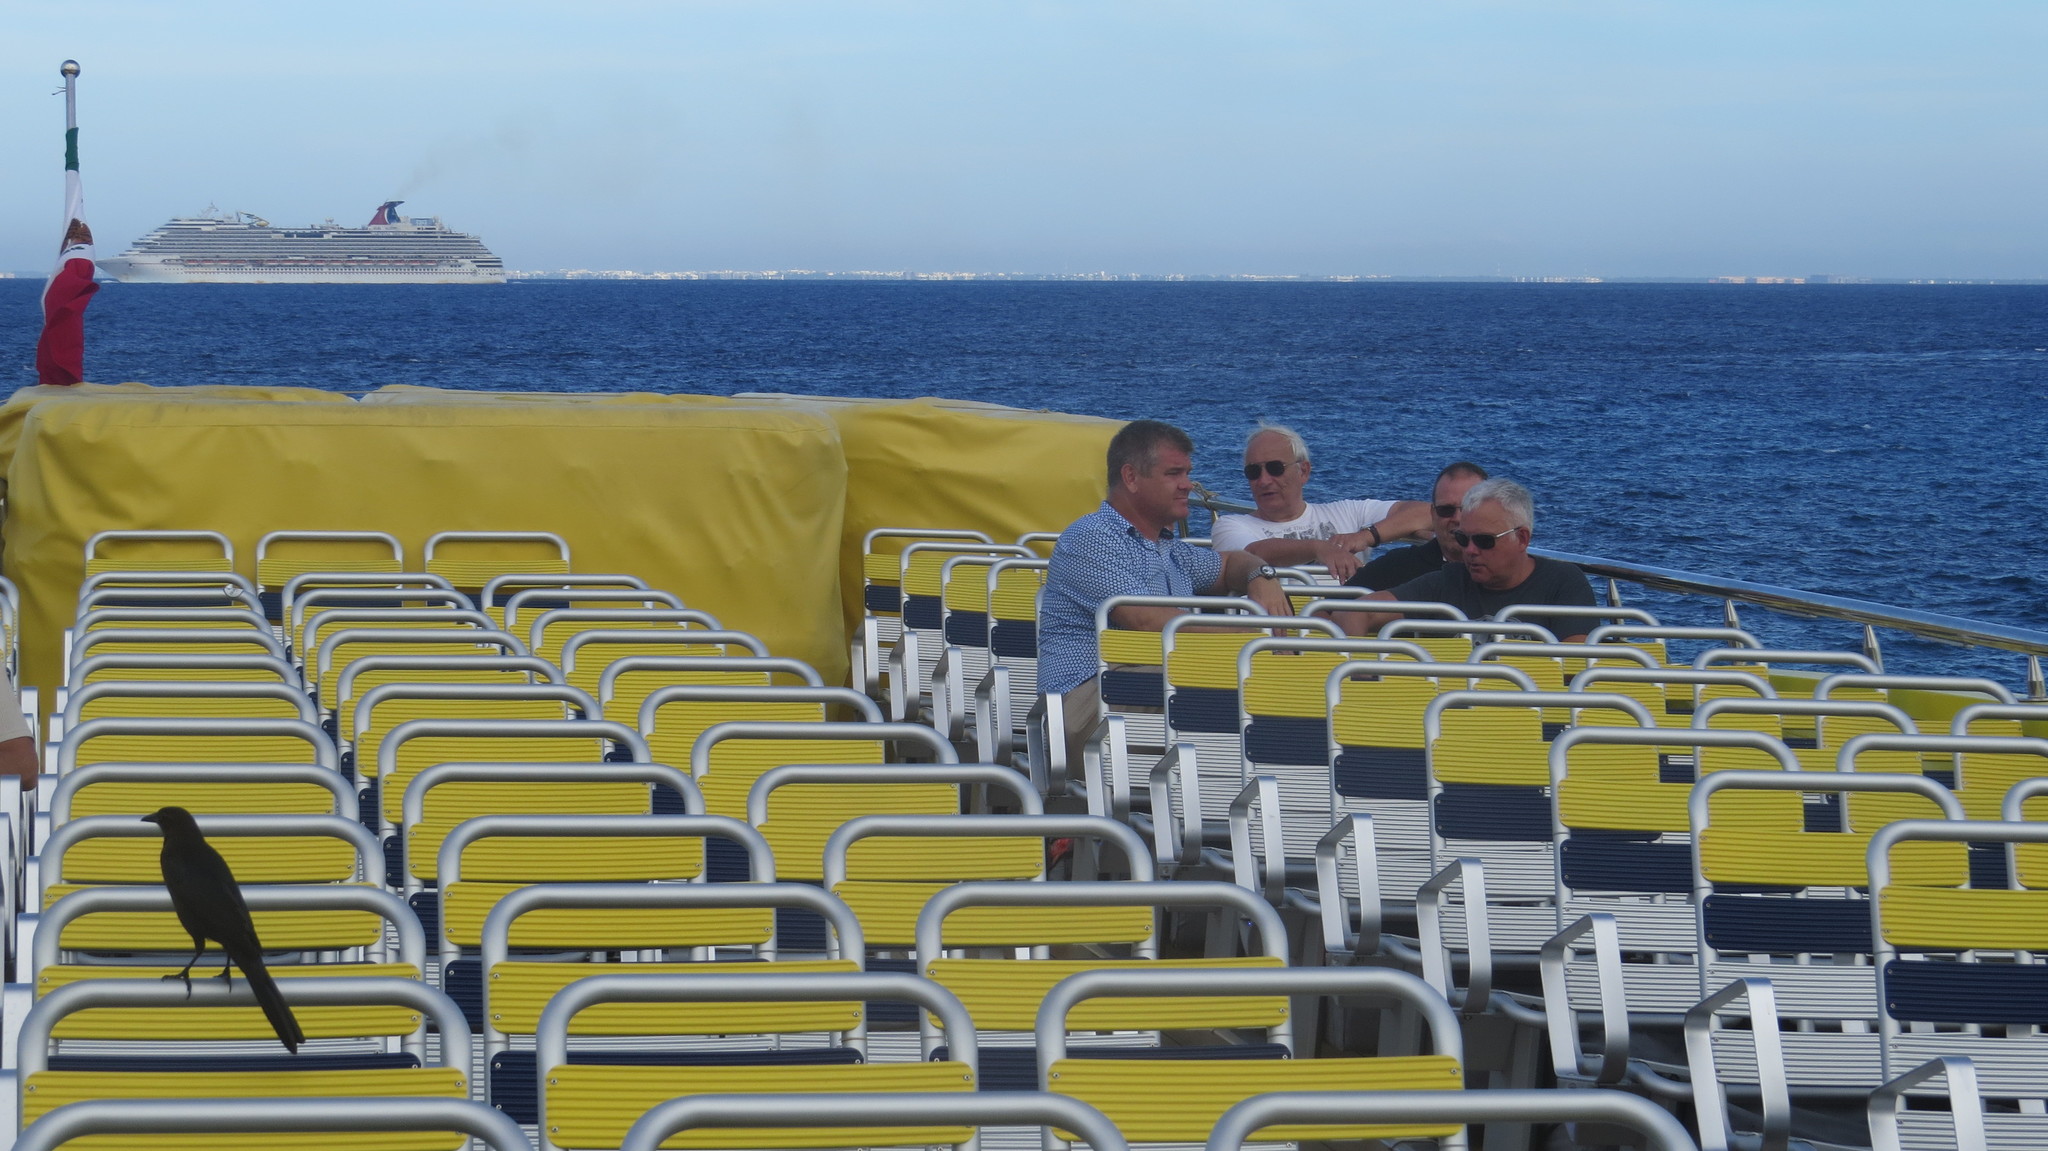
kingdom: Animalia
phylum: Chordata
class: Aves
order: Passeriformes
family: Icteridae
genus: Quiscalus
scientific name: Quiscalus mexicanus
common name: Great-tailed grackle
